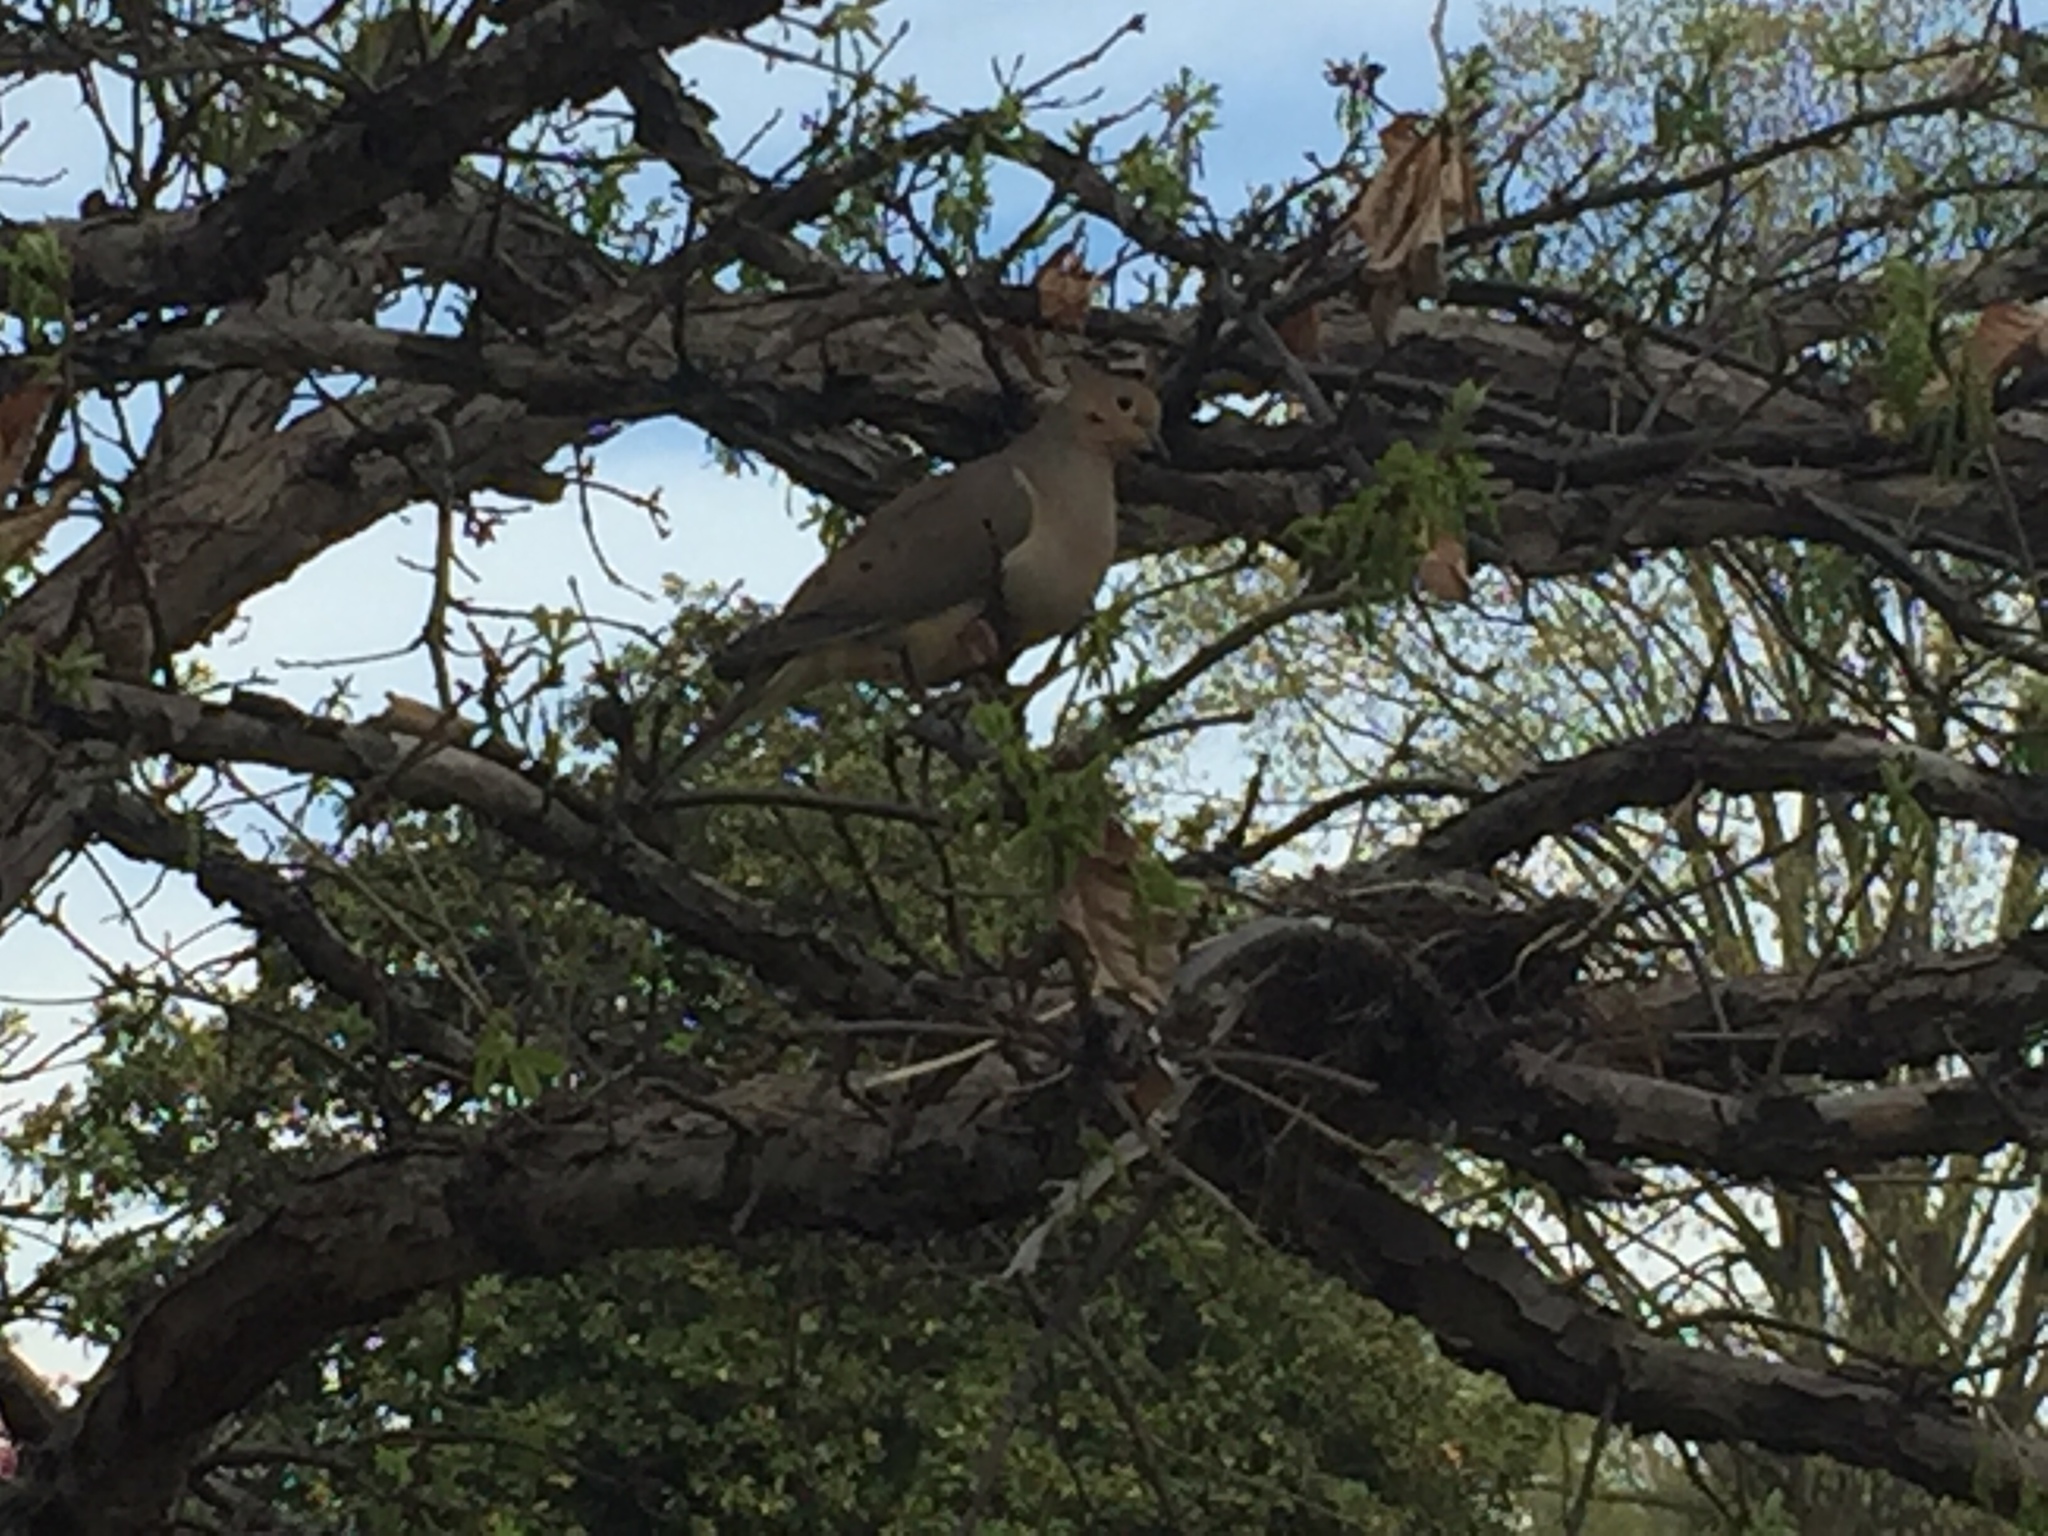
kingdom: Animalia
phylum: Chordata
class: Aves
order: Columbiformes
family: Columbidae
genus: Zenaida
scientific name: Zenaida macroura
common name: Mourning dove
